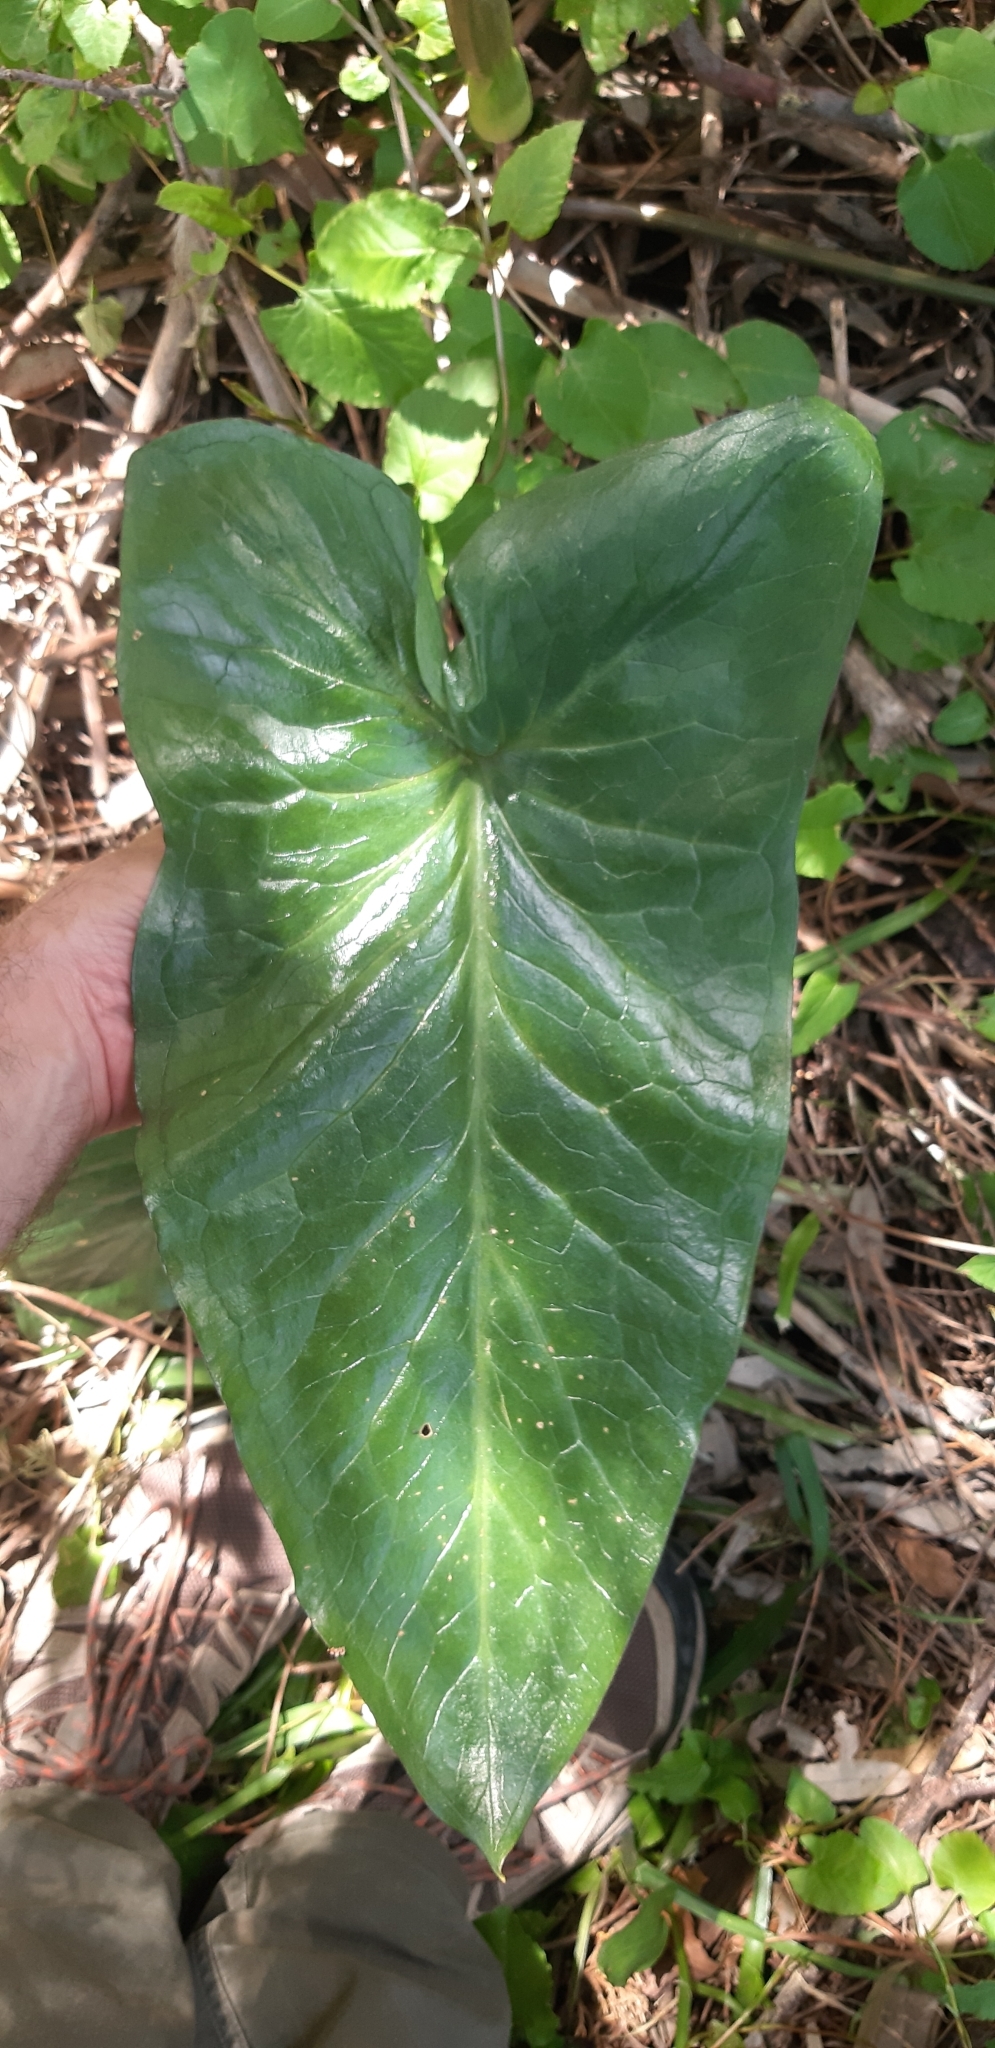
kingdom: Plantae
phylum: Tracheophyta
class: Liliopsida
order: Alismatales
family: Araceae
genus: Arum
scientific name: Arum apulum
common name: Apulian lords and ladies
